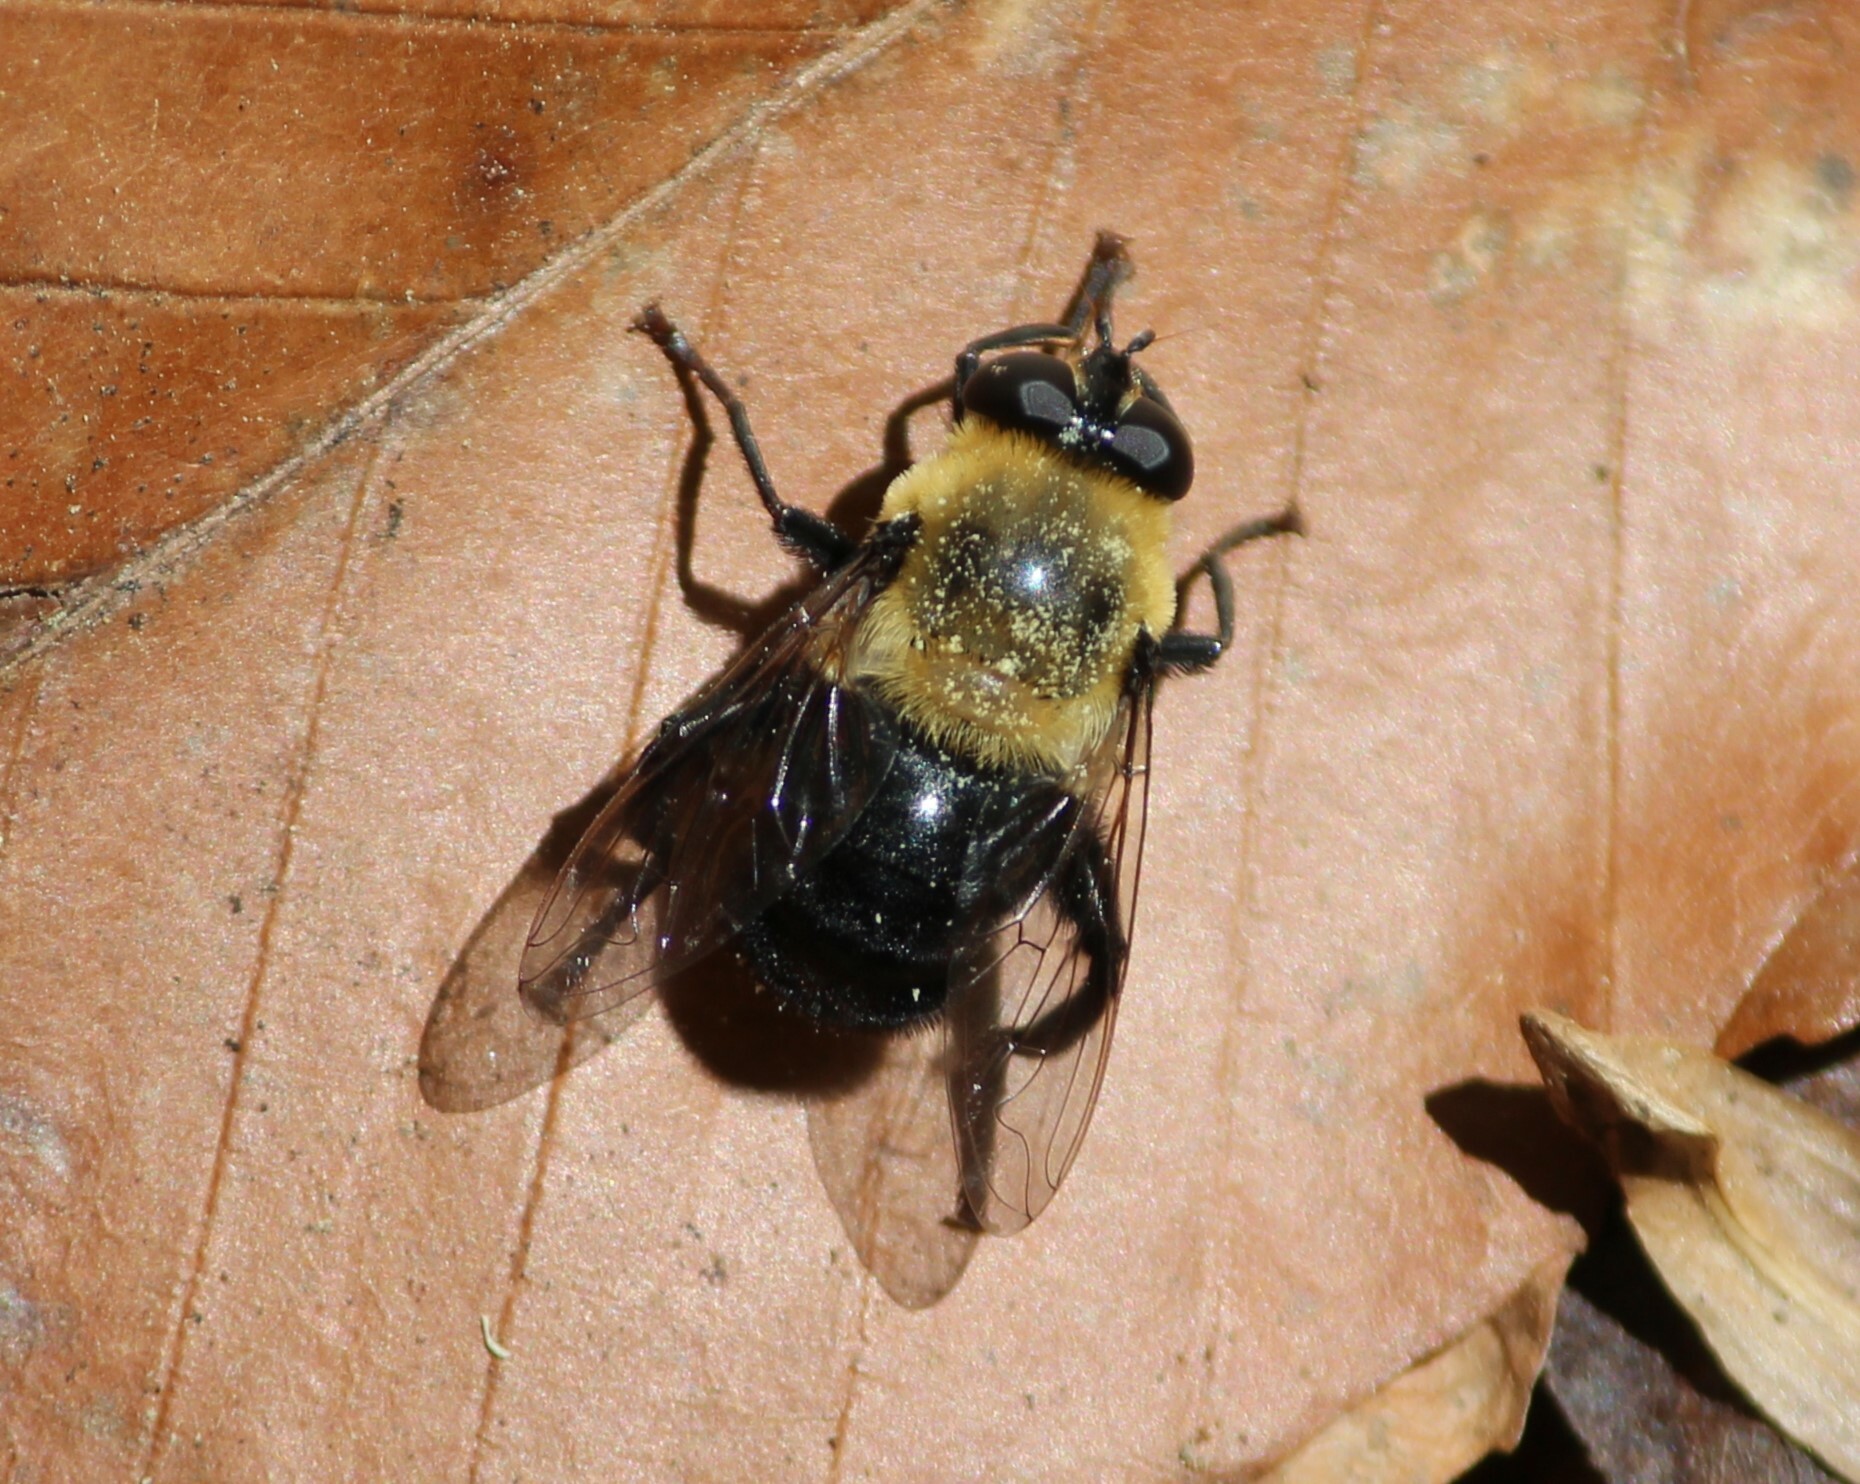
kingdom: Animalia
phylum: Arthropoda
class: Insecta
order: Diptera
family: Syrphidae
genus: Imatisma
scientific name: Imatisma bautias
